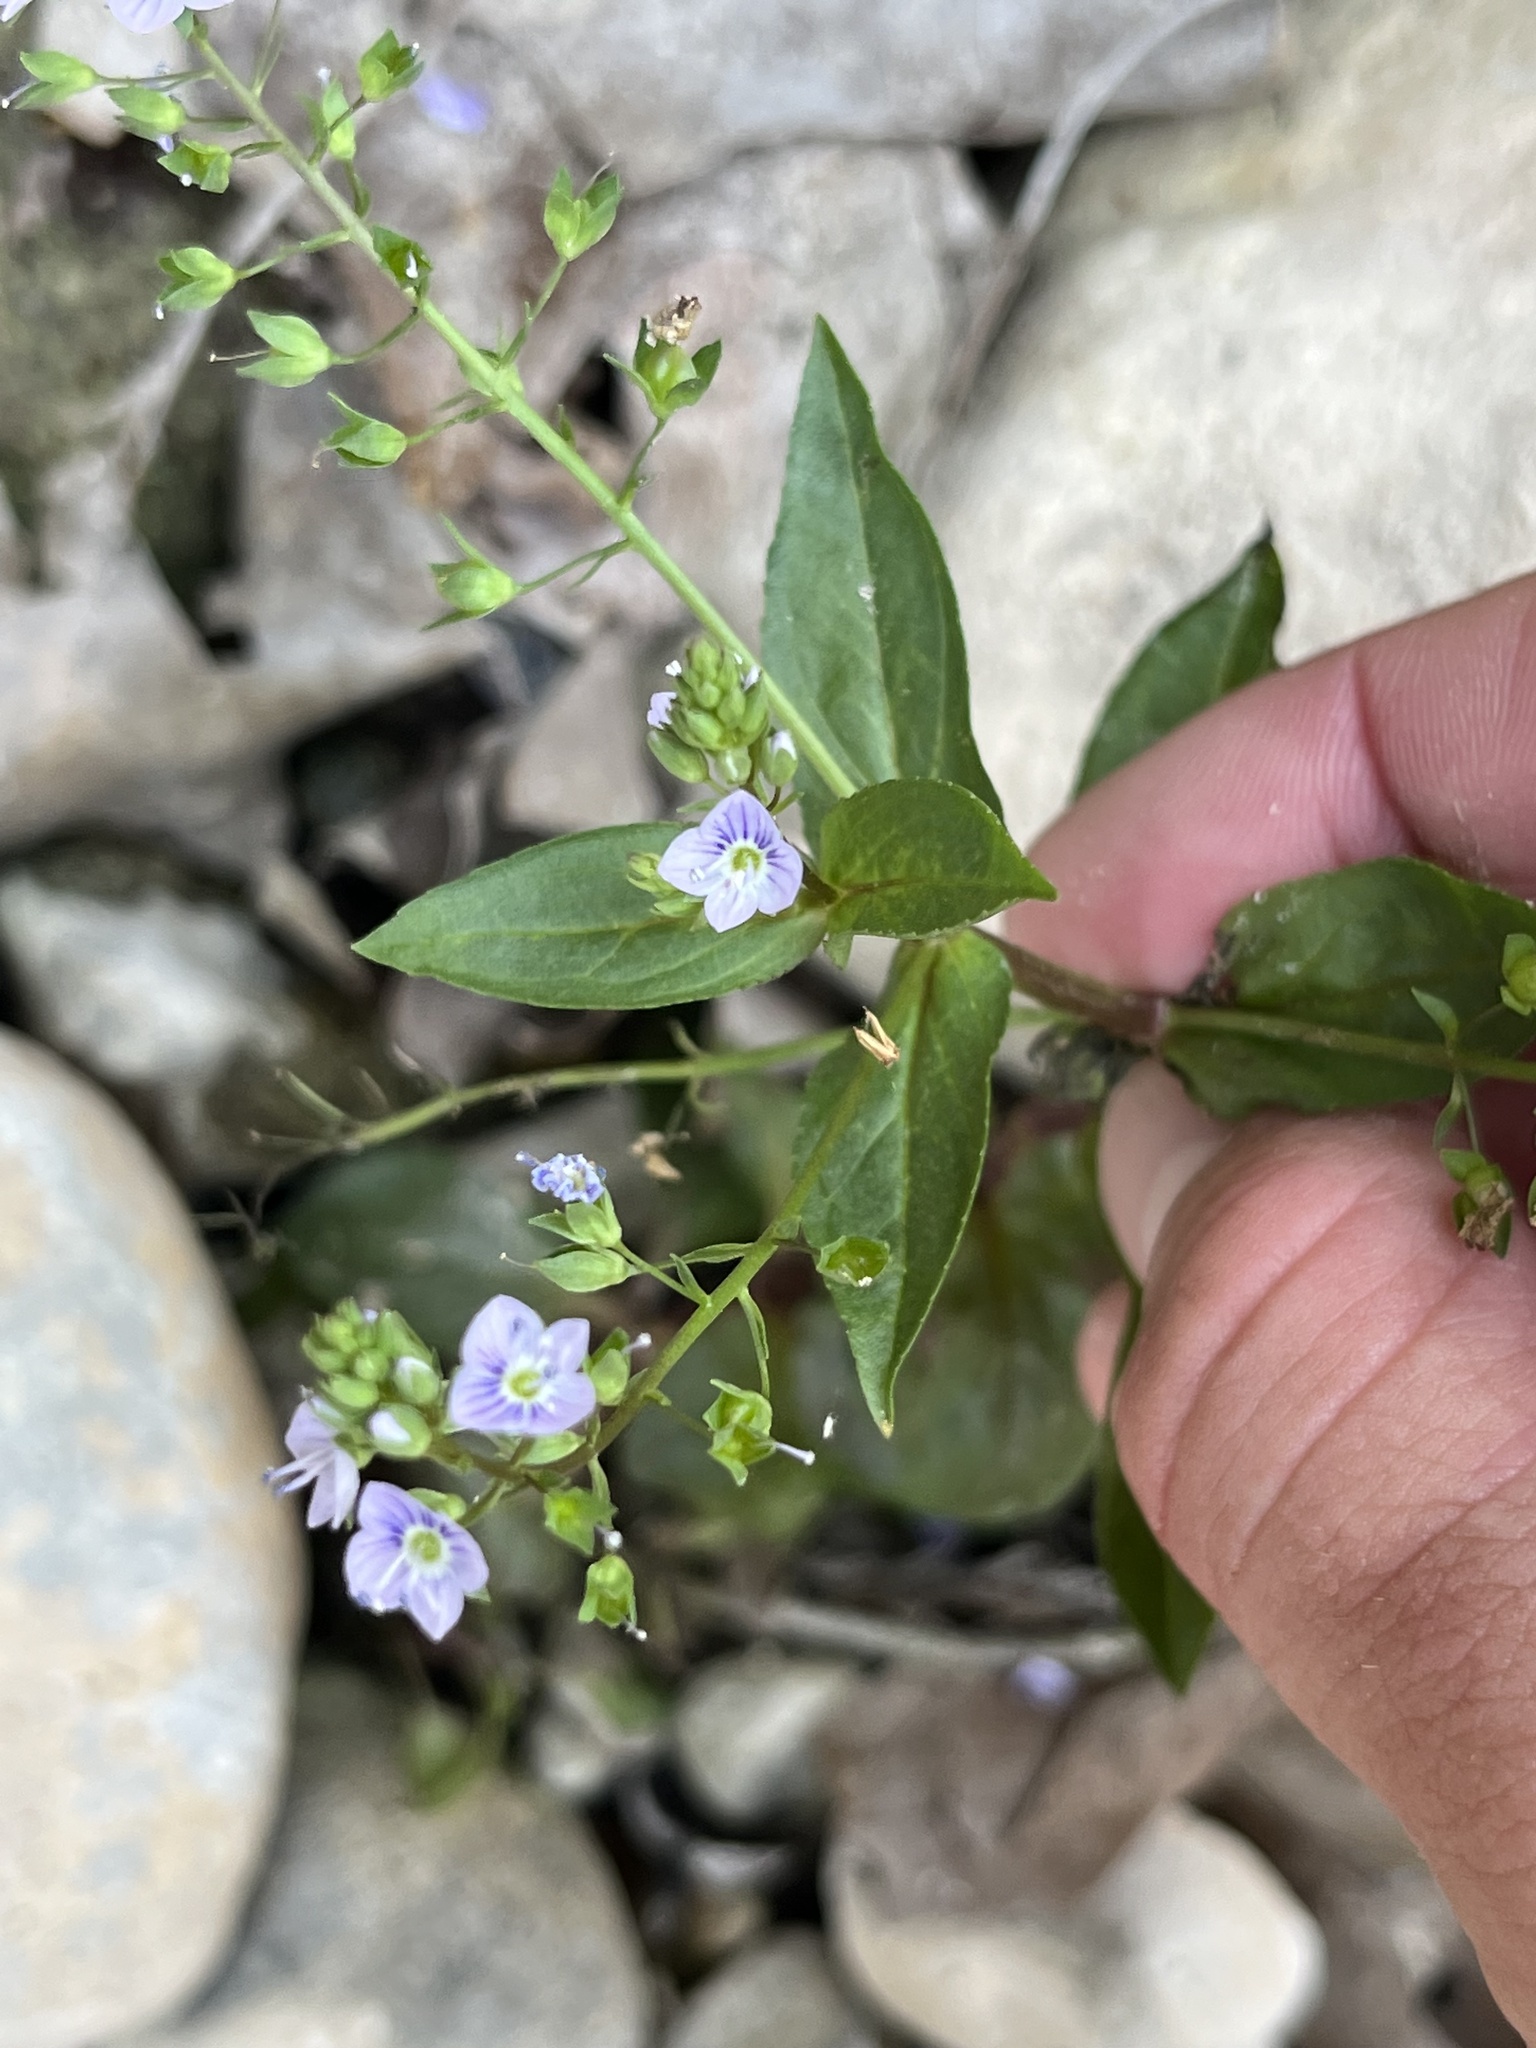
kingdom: Plantae
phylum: Tracheophyta
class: Magnoliopsida
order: Lamiales
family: Plantaginaceae
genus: Veronica
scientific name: Veronica anagallis-aquatica
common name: Water speedwell
